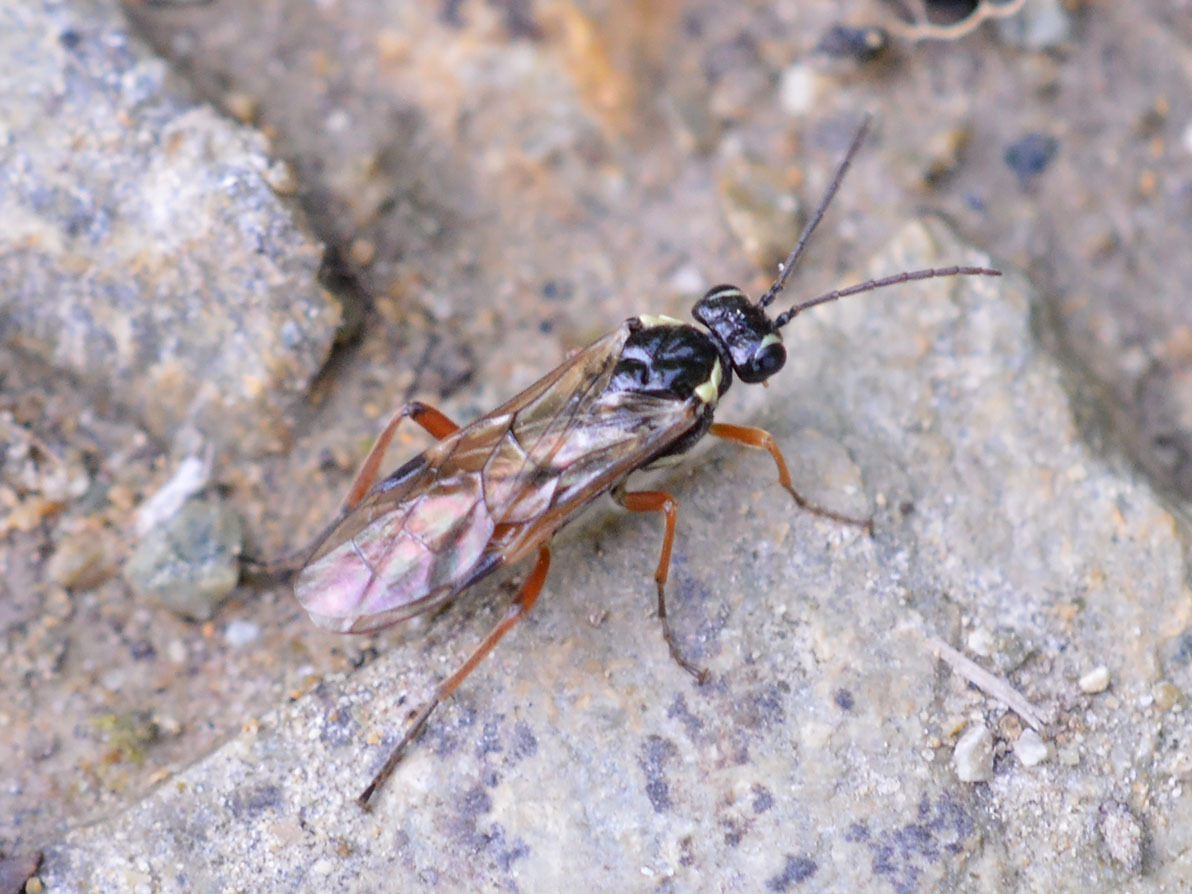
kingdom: Animalia
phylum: Arthropoda
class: Insecta
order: Hymenoptera
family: Tenthredinidae
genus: Aglaostigma
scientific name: Aglaostigma fulvipes
